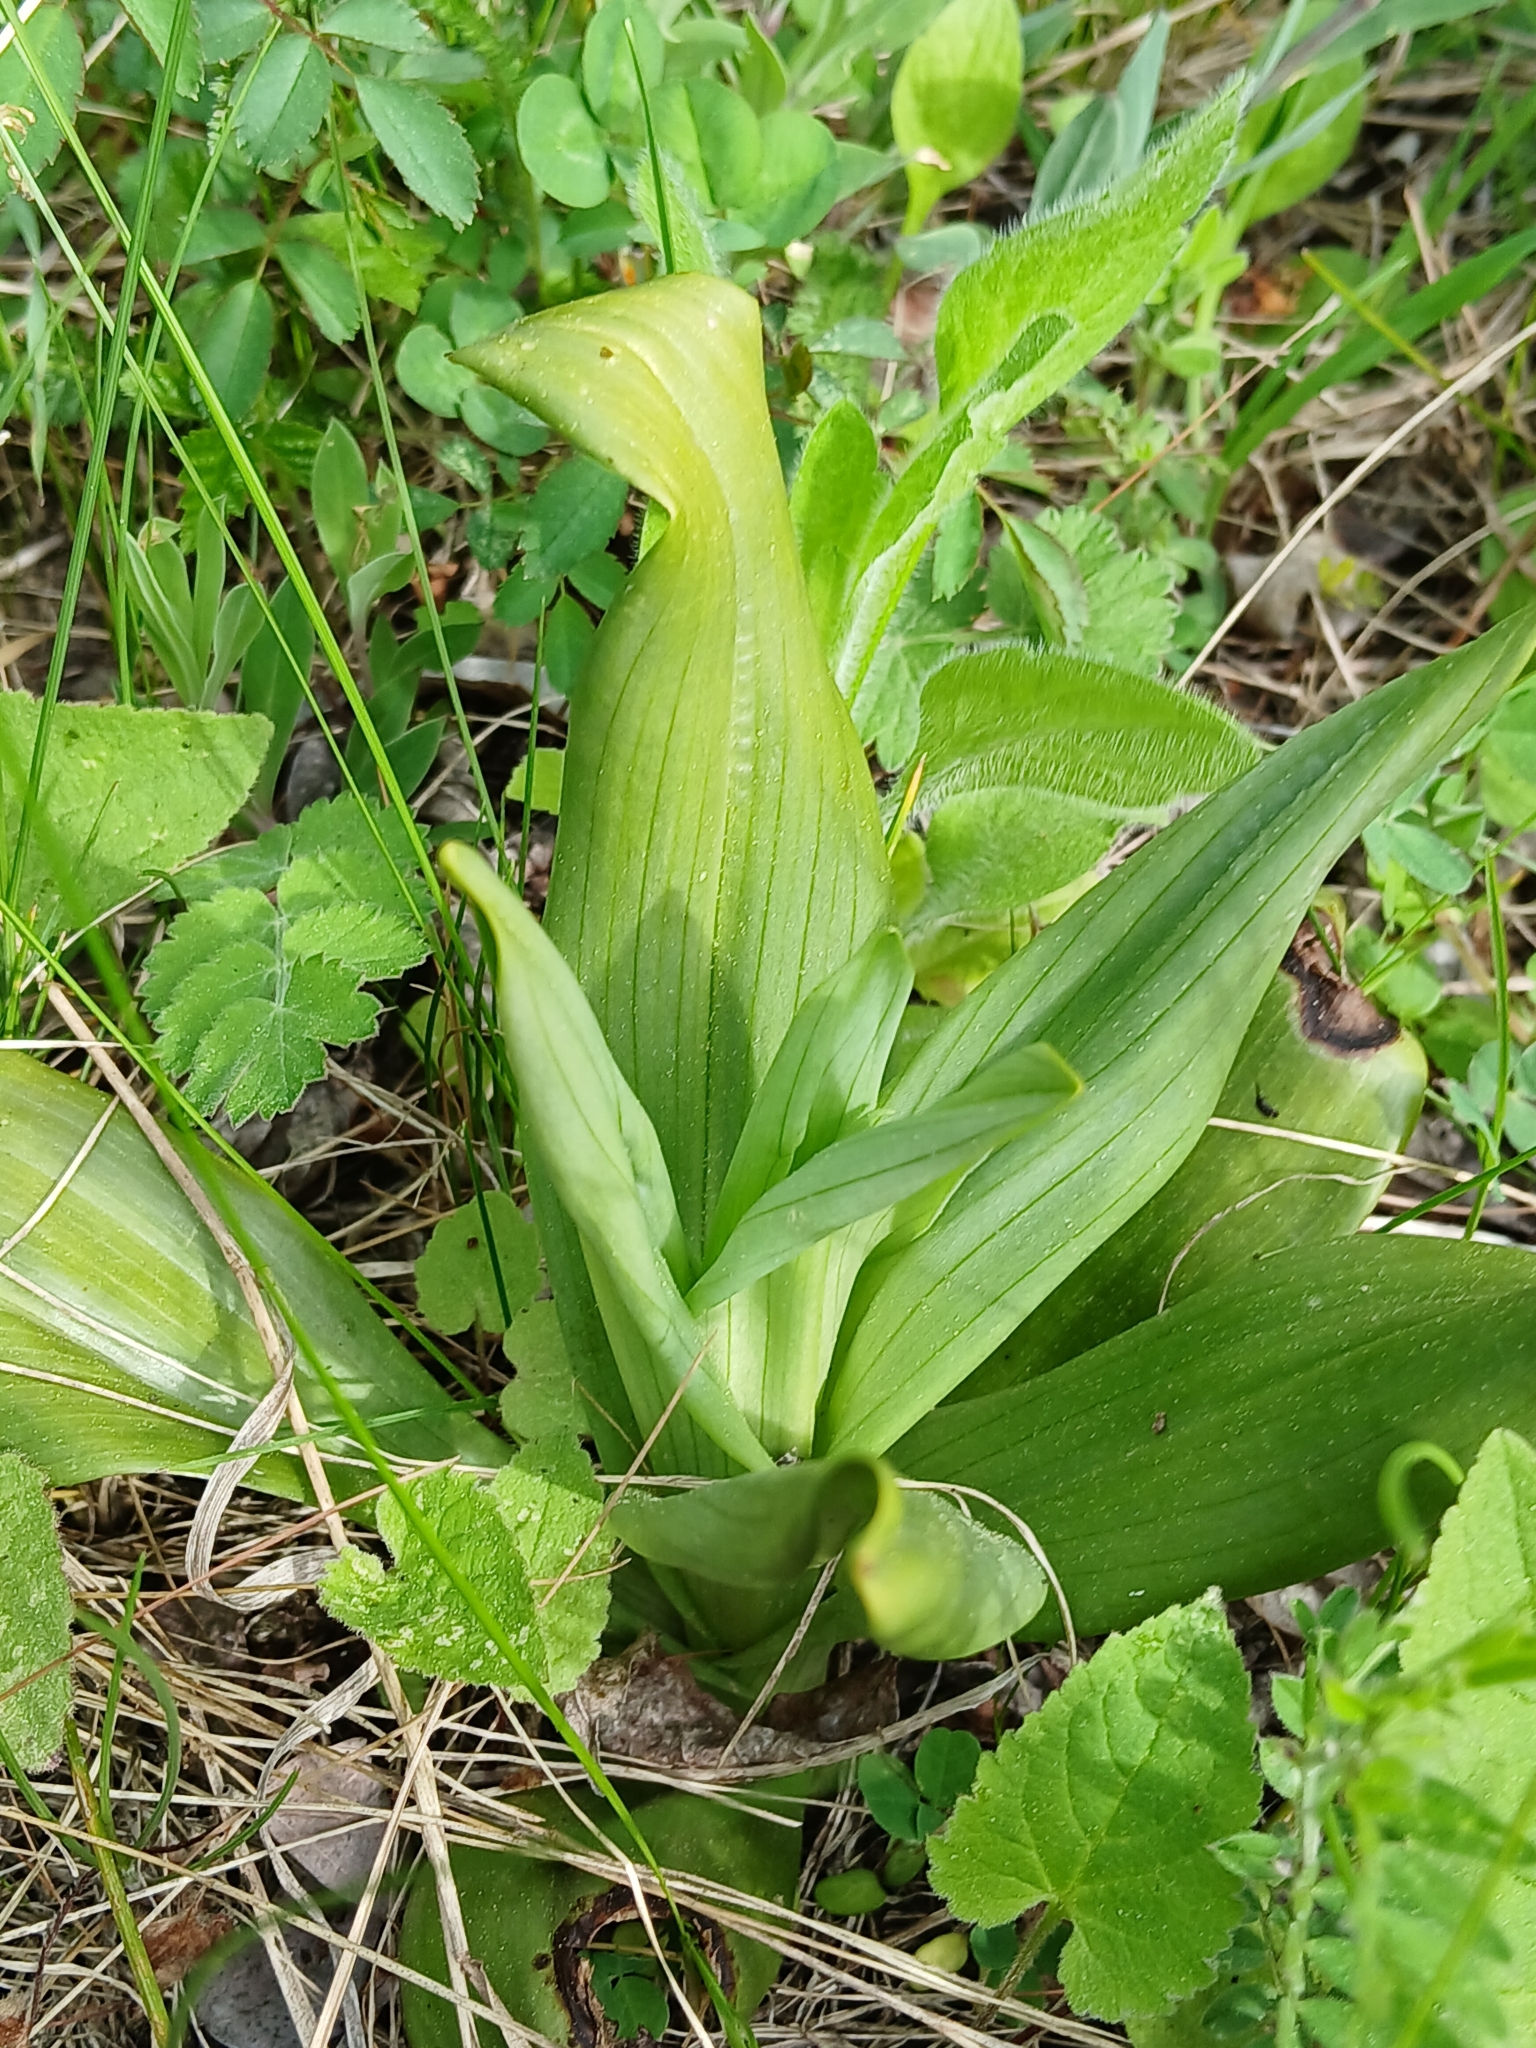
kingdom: Plantae
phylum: Tracheophyta
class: Liliopsida
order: Asparagales
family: Orchidaceae
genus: Himantoglossum
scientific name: Himantoglossum adriaticum
